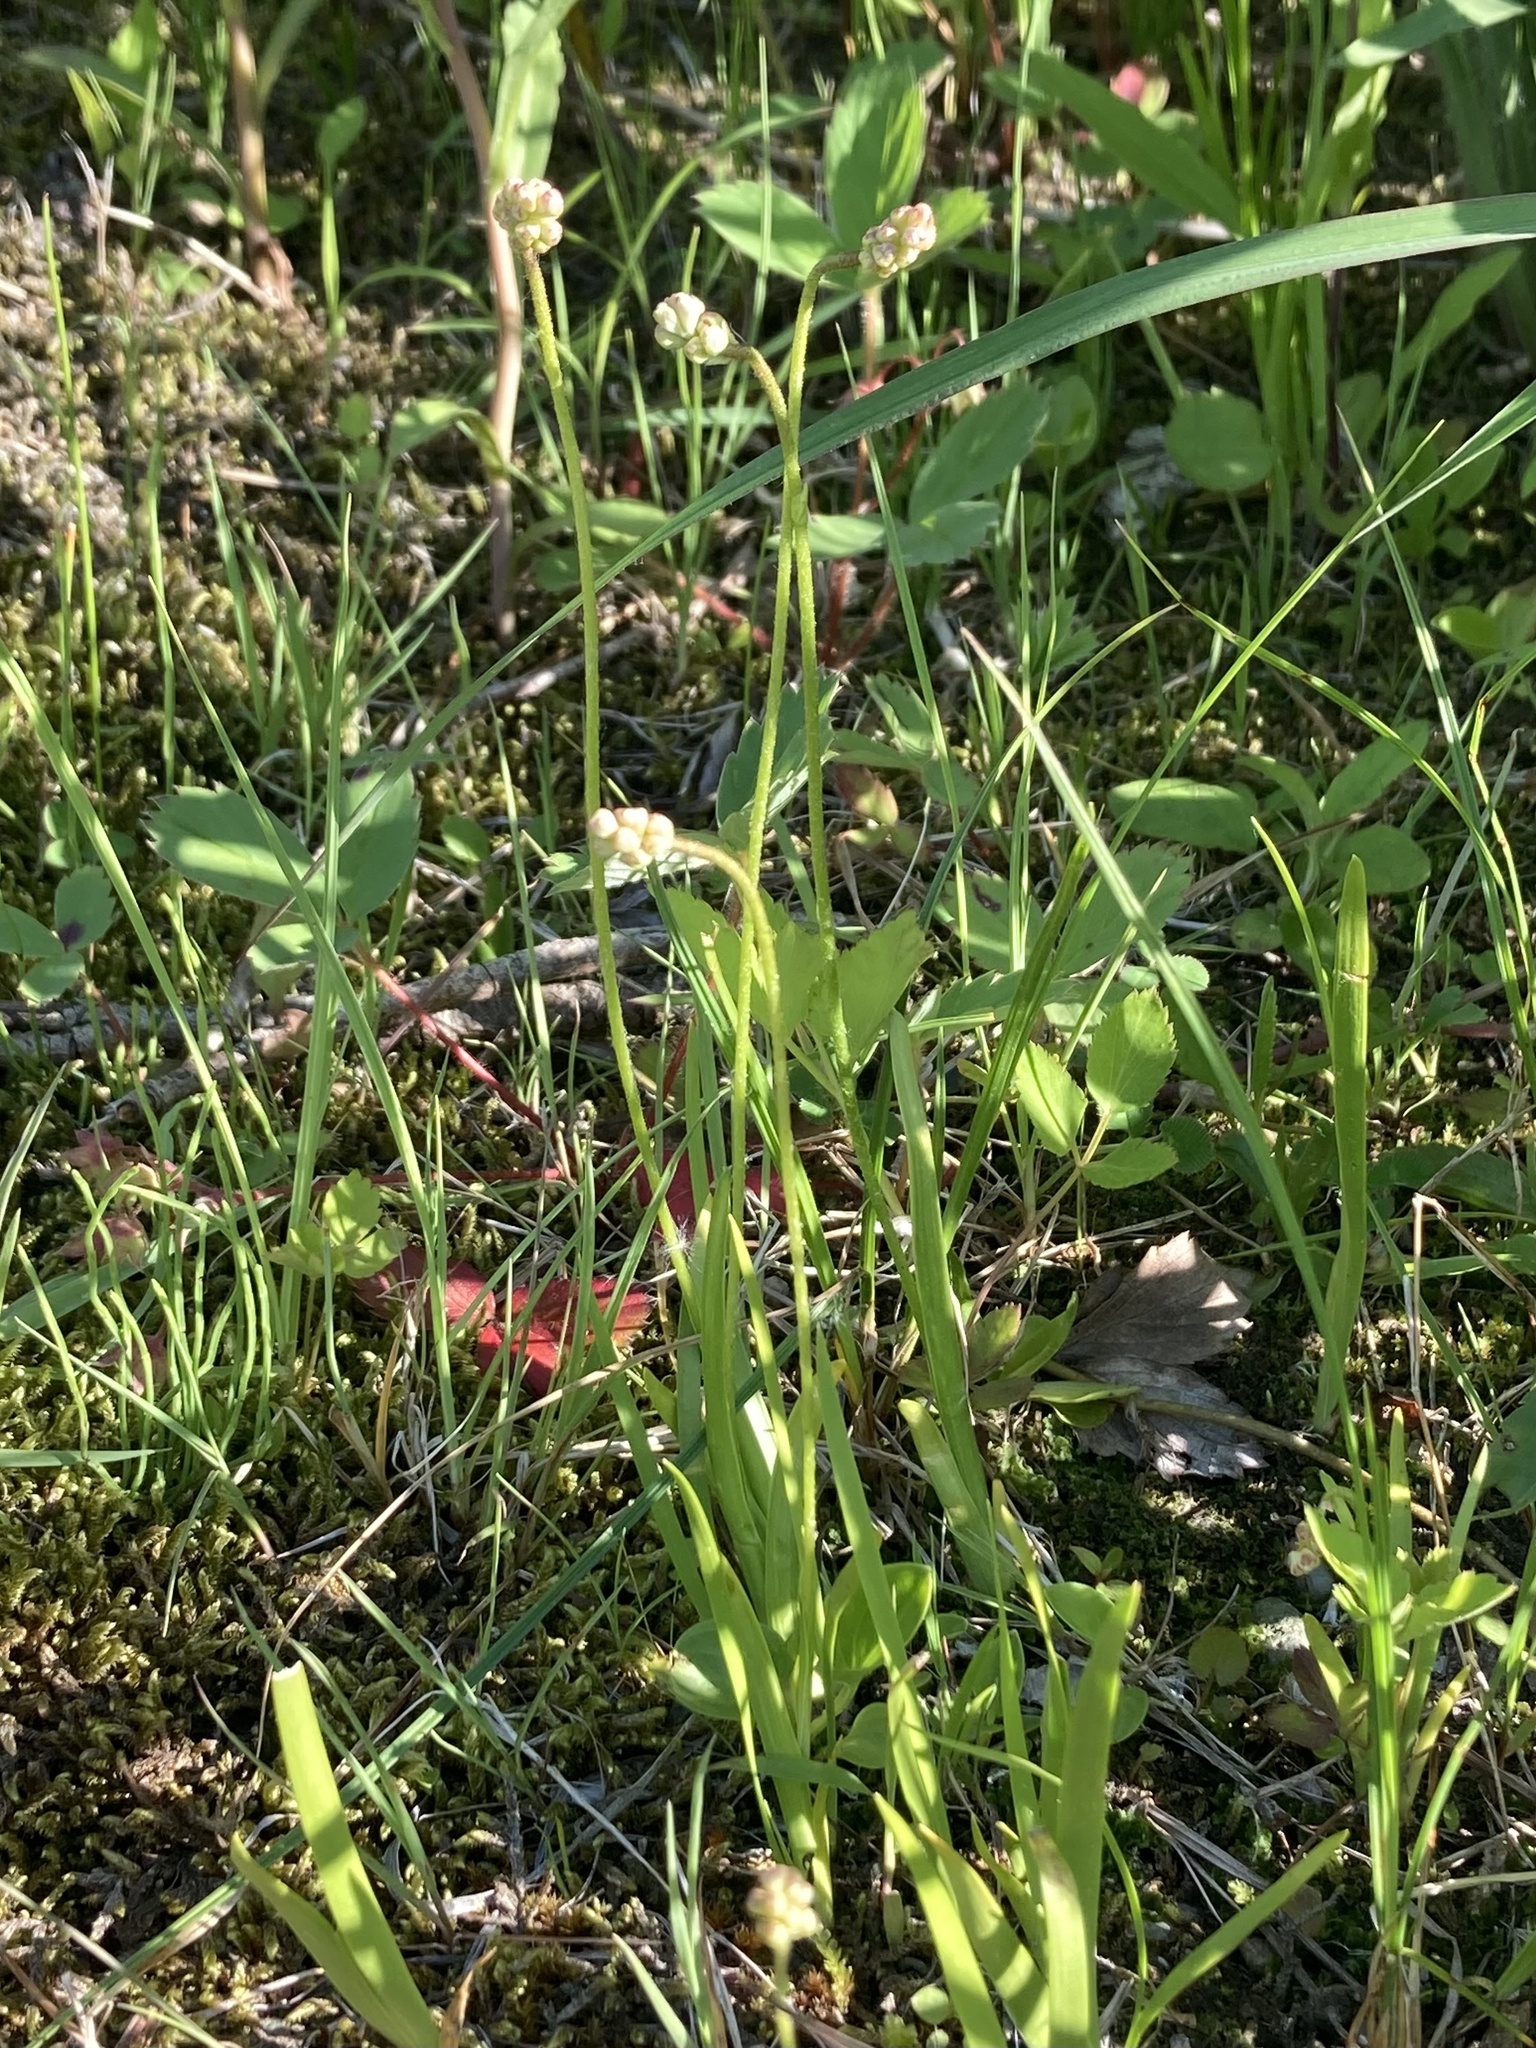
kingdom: Plantae
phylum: Tracheophyta
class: Liliopsida
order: Alismatales
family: Tofieldiaceae
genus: Triantha
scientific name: Triantha glutinosa
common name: Glutinous tofieldia
